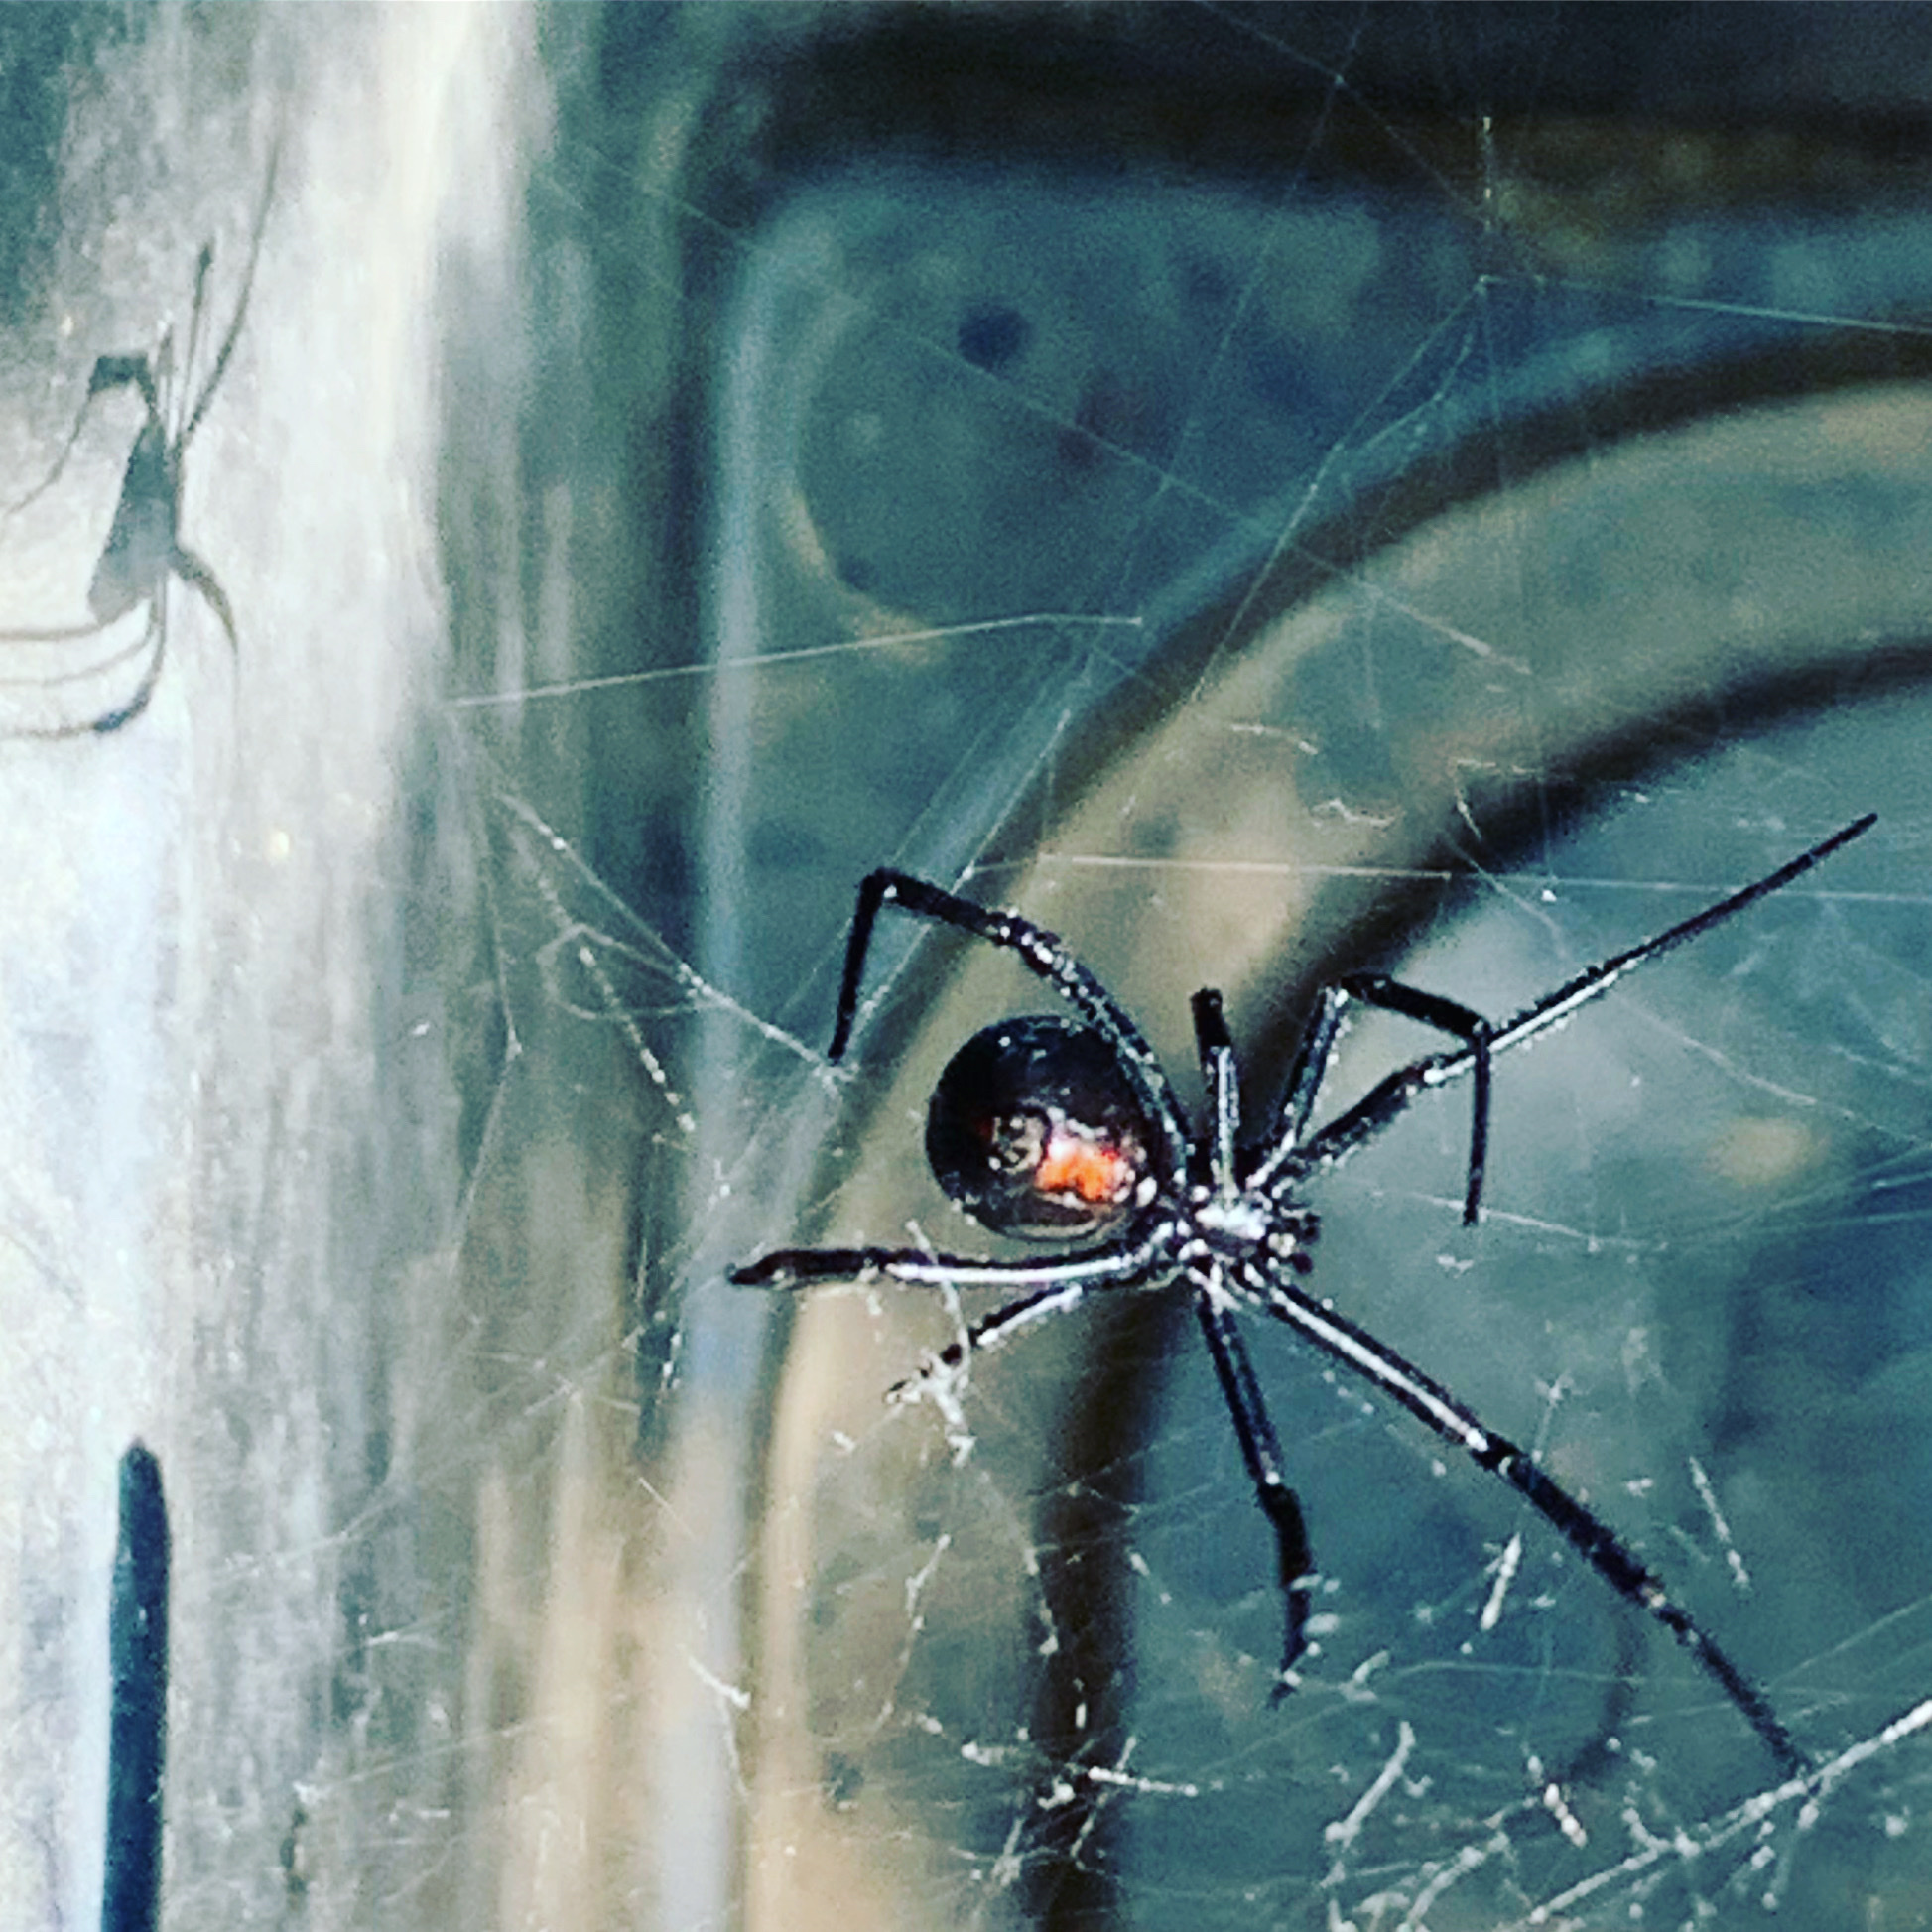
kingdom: Animalia
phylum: Arthropoda
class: Arachnida
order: Araneae
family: Theridiidae
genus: Latrodectus
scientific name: Latrodectus hesperus
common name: Western black widow
